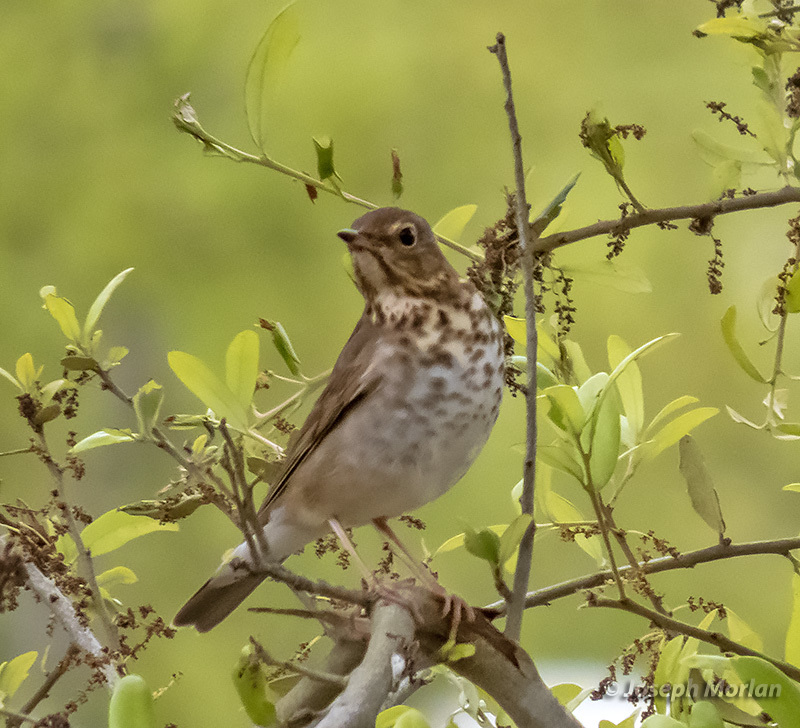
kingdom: Animalia
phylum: Chordata
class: Aves
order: Passeriformes
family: Turdidae
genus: Catharus
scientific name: Catharus ustulatus
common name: Swainson's thrush
